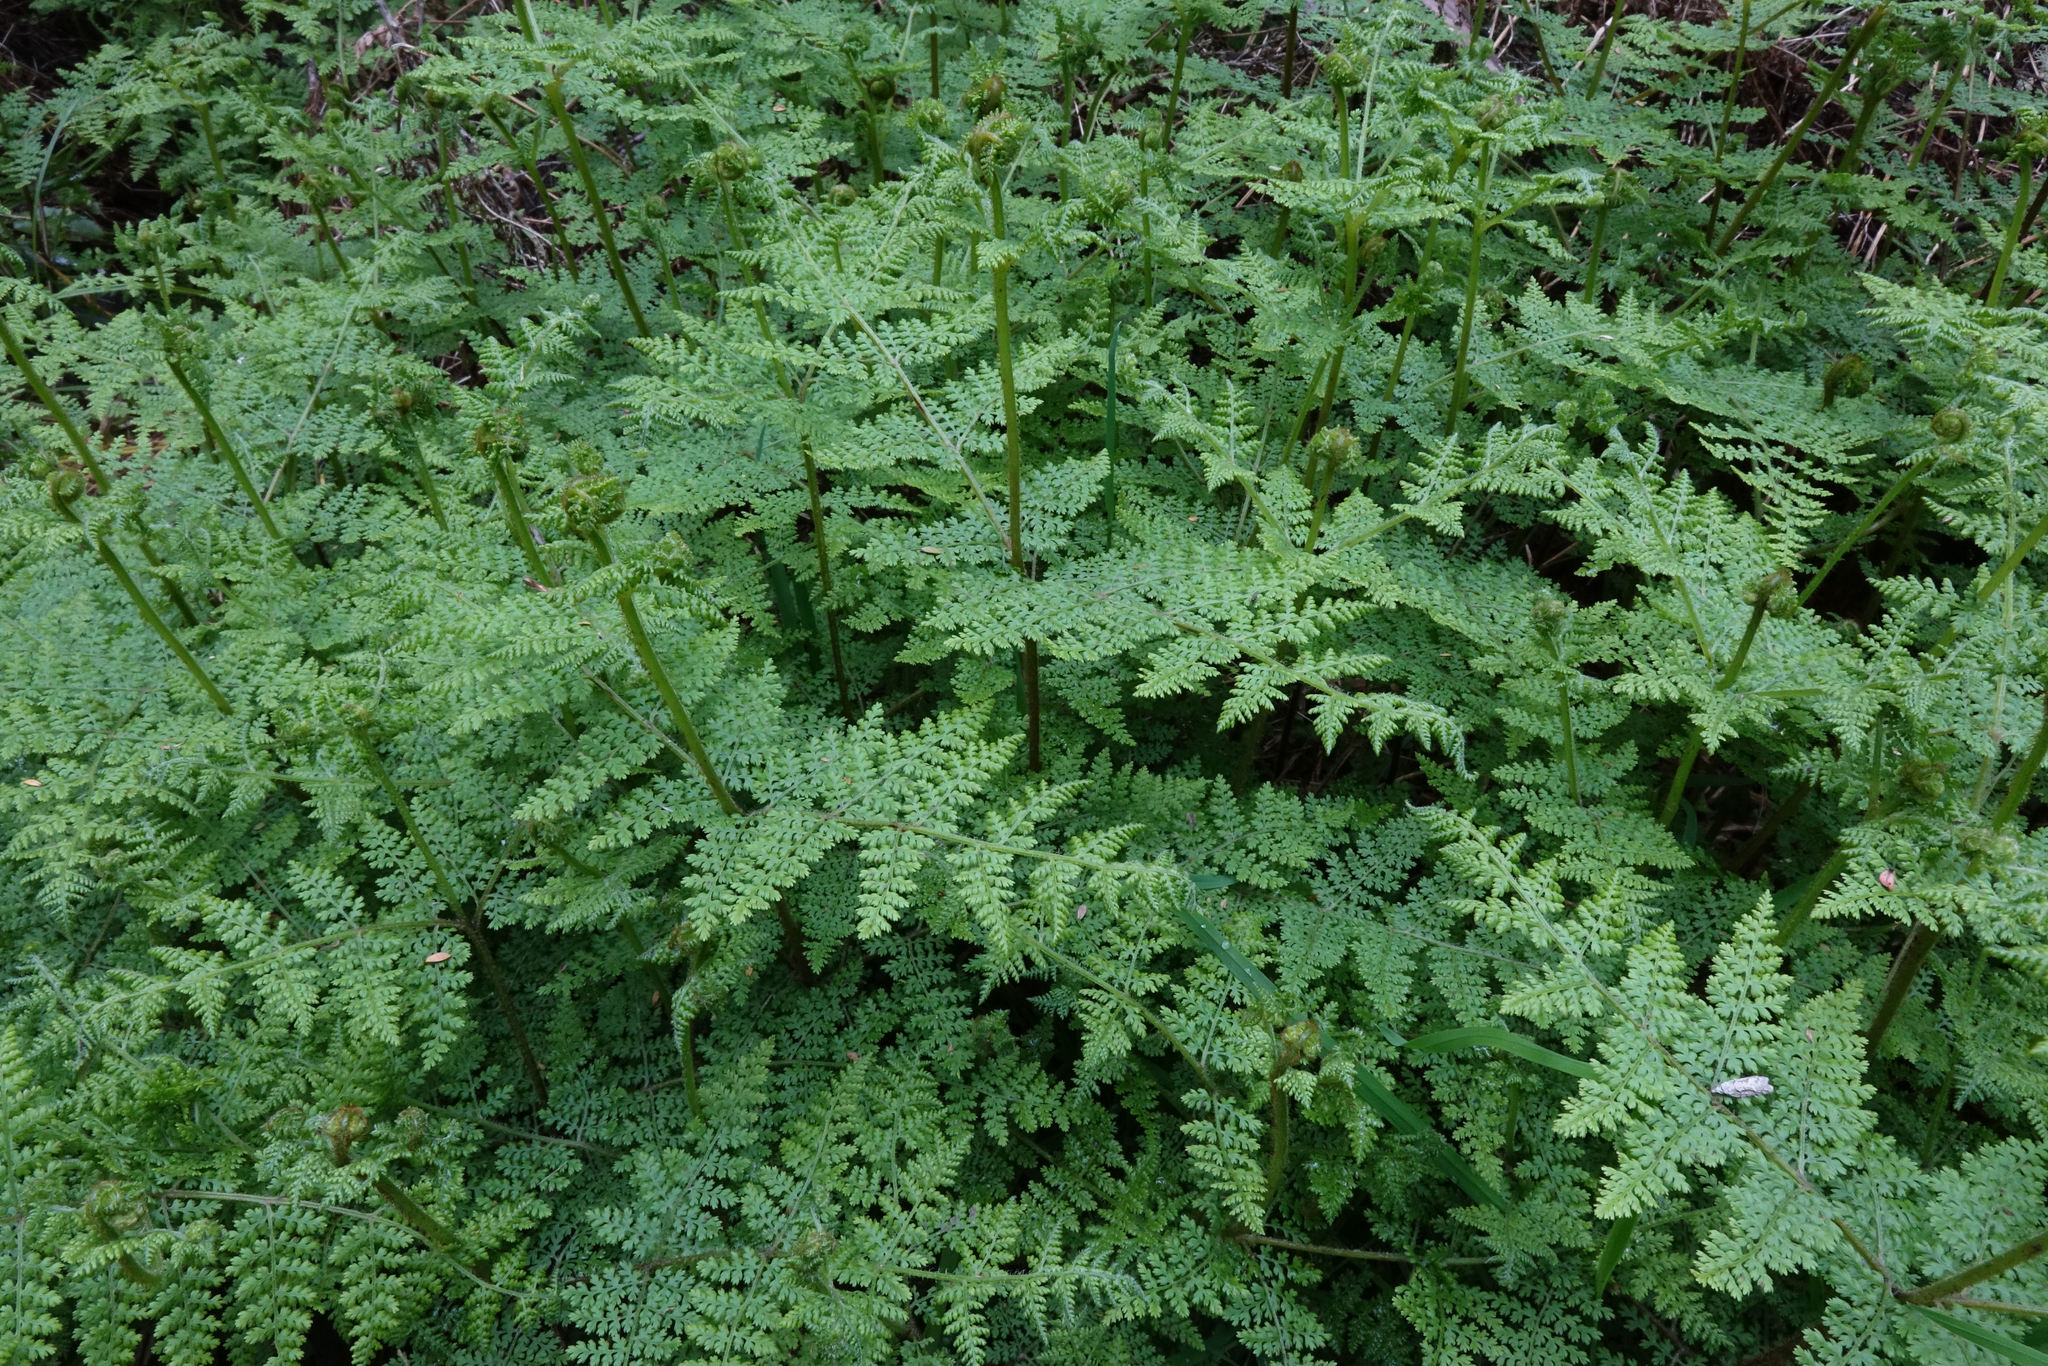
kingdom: Plantae
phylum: Tracheophyta
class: Polypodiopsida
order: Polypodiales
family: Dennstaedtiaceae
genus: Hypolepis
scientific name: Hypolepis millefolium
